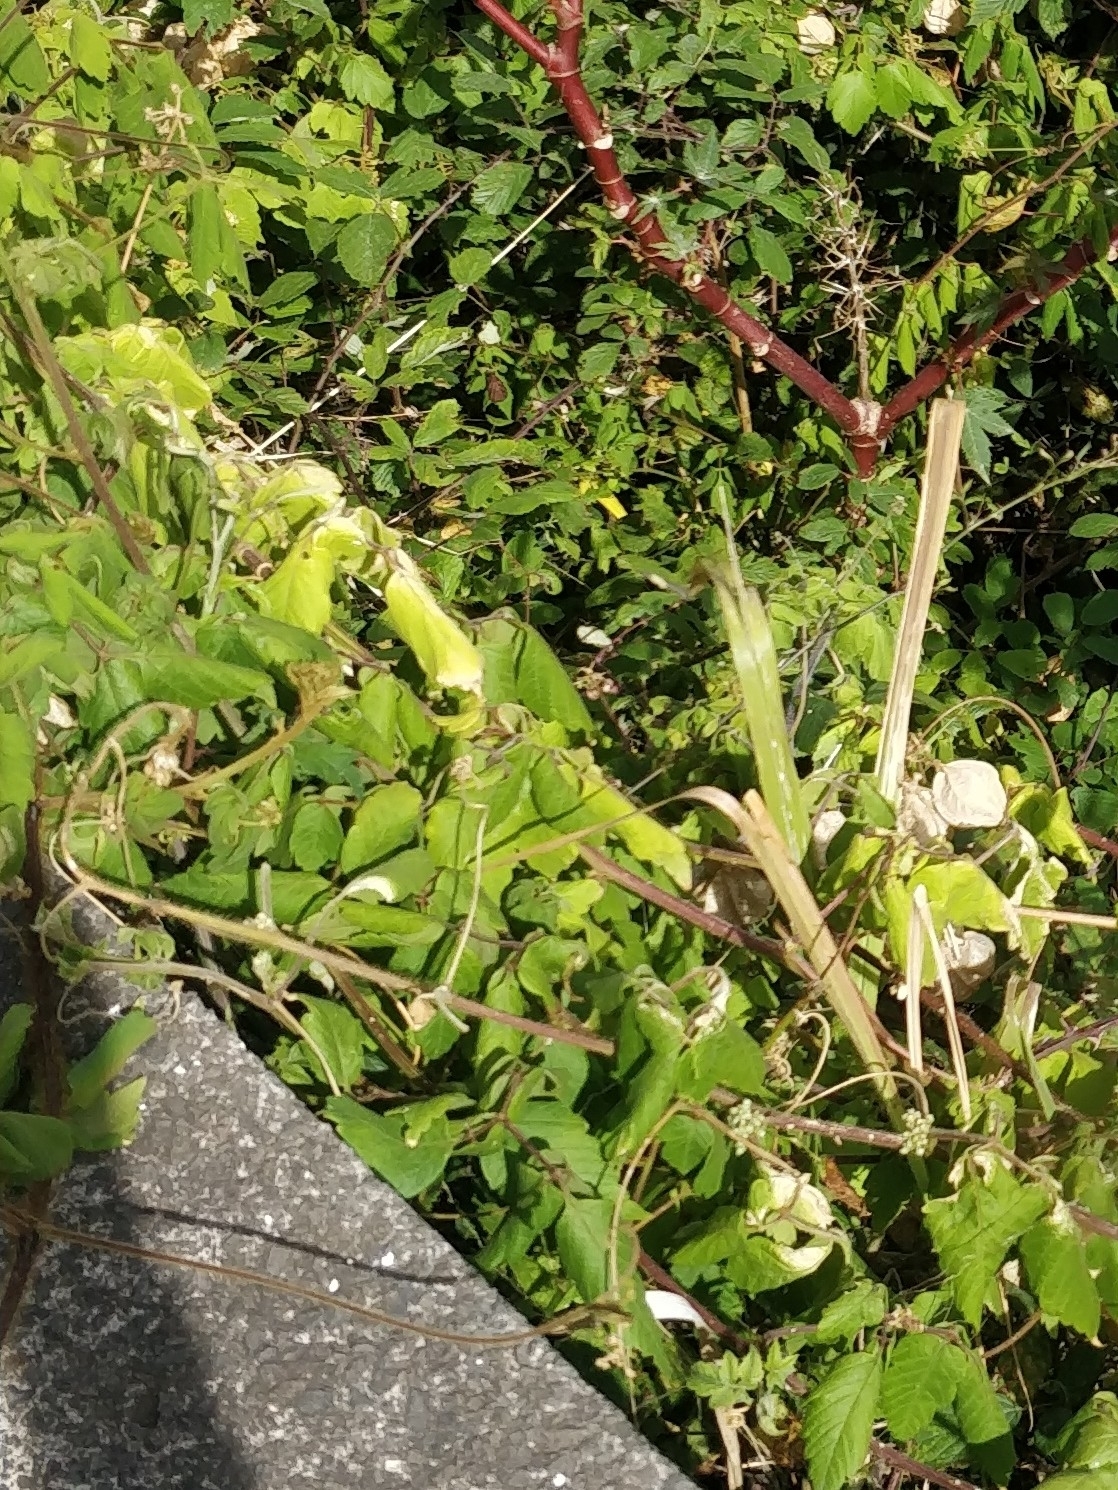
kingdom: Plantae
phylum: Tracheophyta
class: Magnoliopsida
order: Sapindales
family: Sapindaceae
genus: Cardiospermum
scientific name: Cardiospermum grandiflorum
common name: Balloon vine
